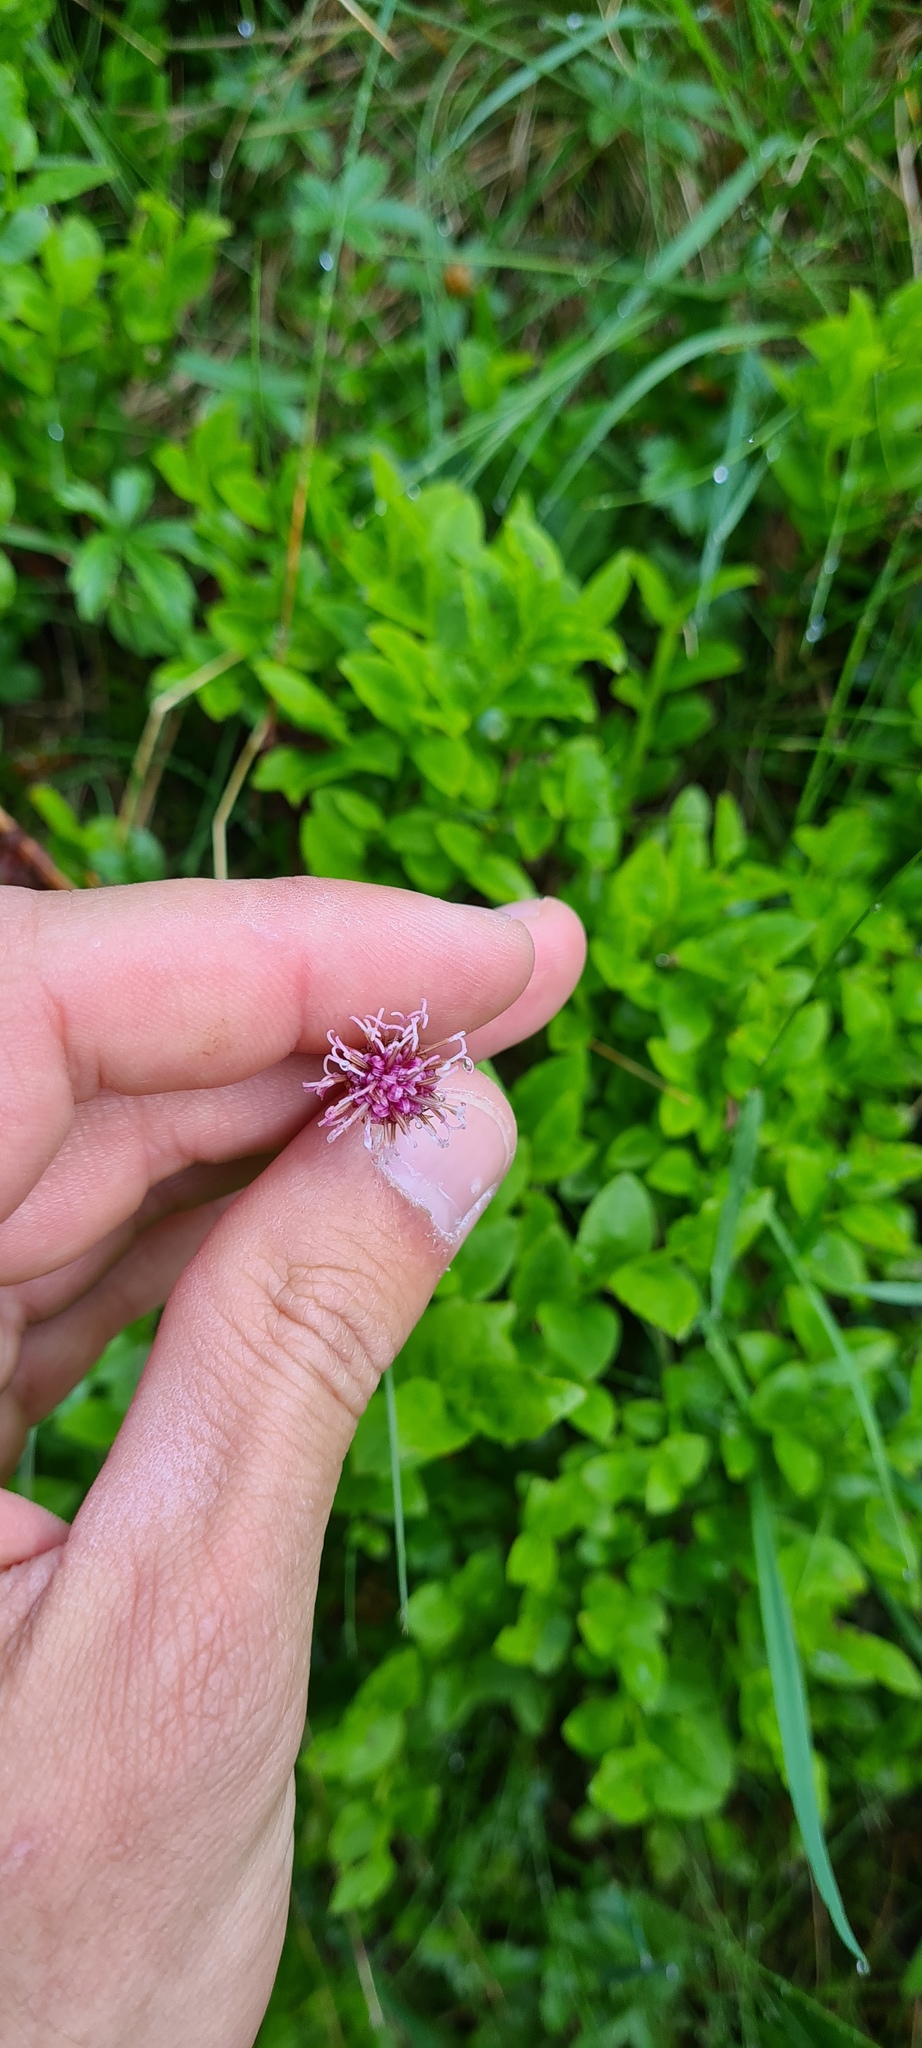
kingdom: Plantae
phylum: Tracheophyta
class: Magnoliopsida
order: Asterales
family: Asteraceae
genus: Homogyne
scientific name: Homogyne alpina
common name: Purple colt's-foot
